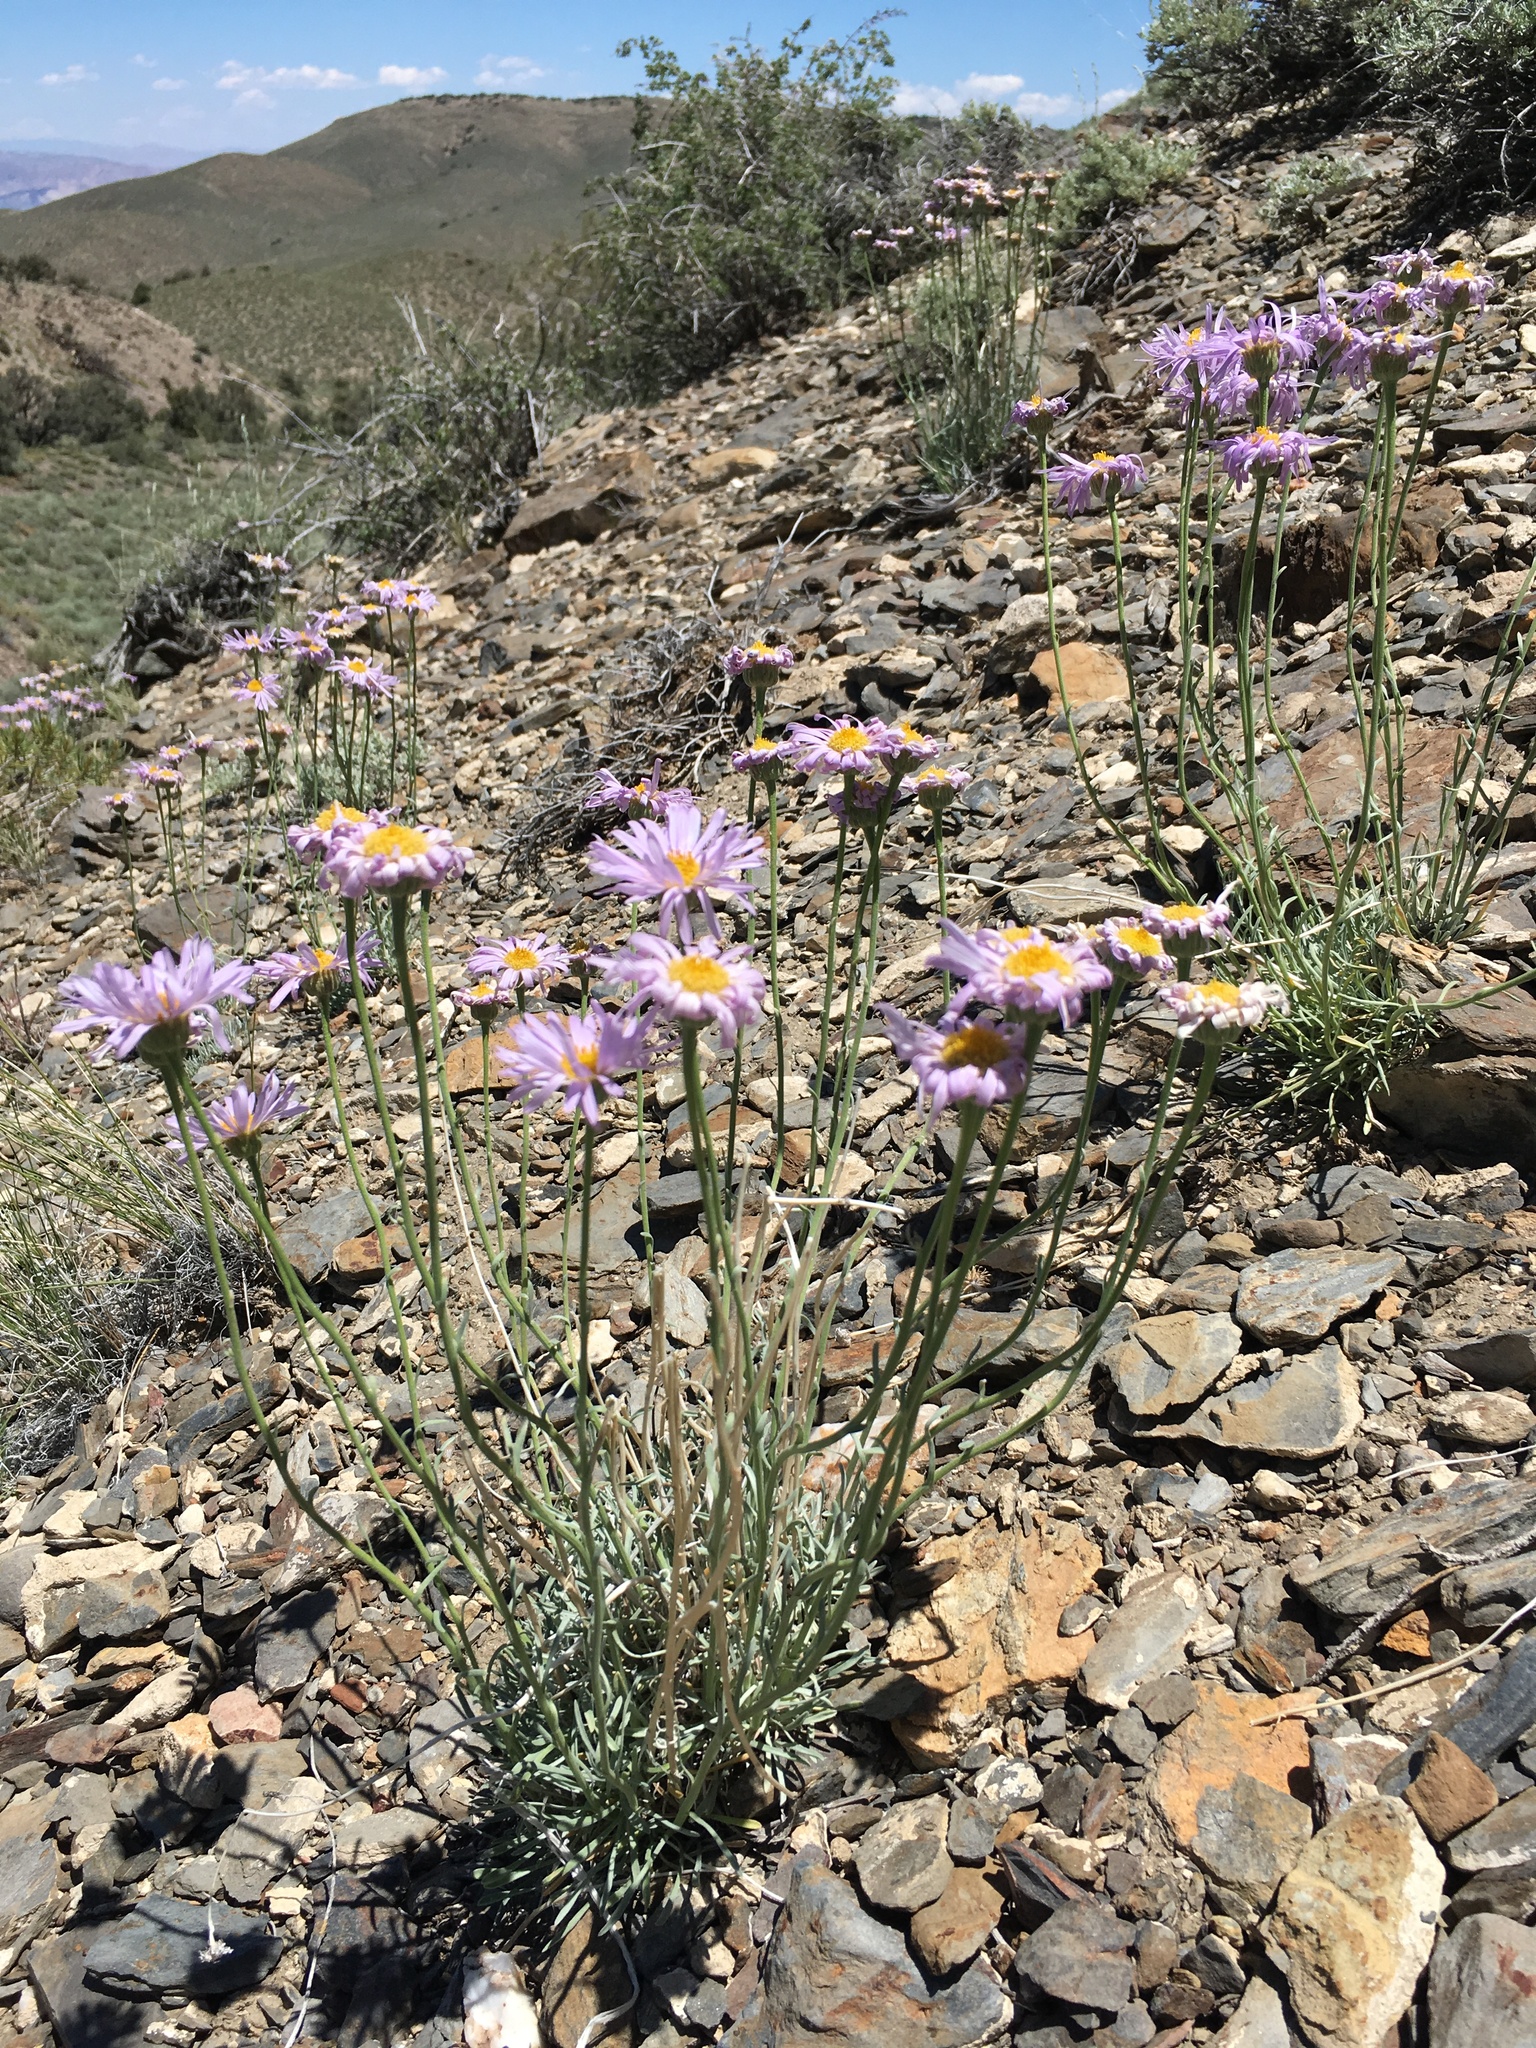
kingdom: Plantae
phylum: Tracheophyta
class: Magnoliopsida
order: Asterales
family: Asteraceae
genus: Erigeron
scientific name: Erigeron argentatus
